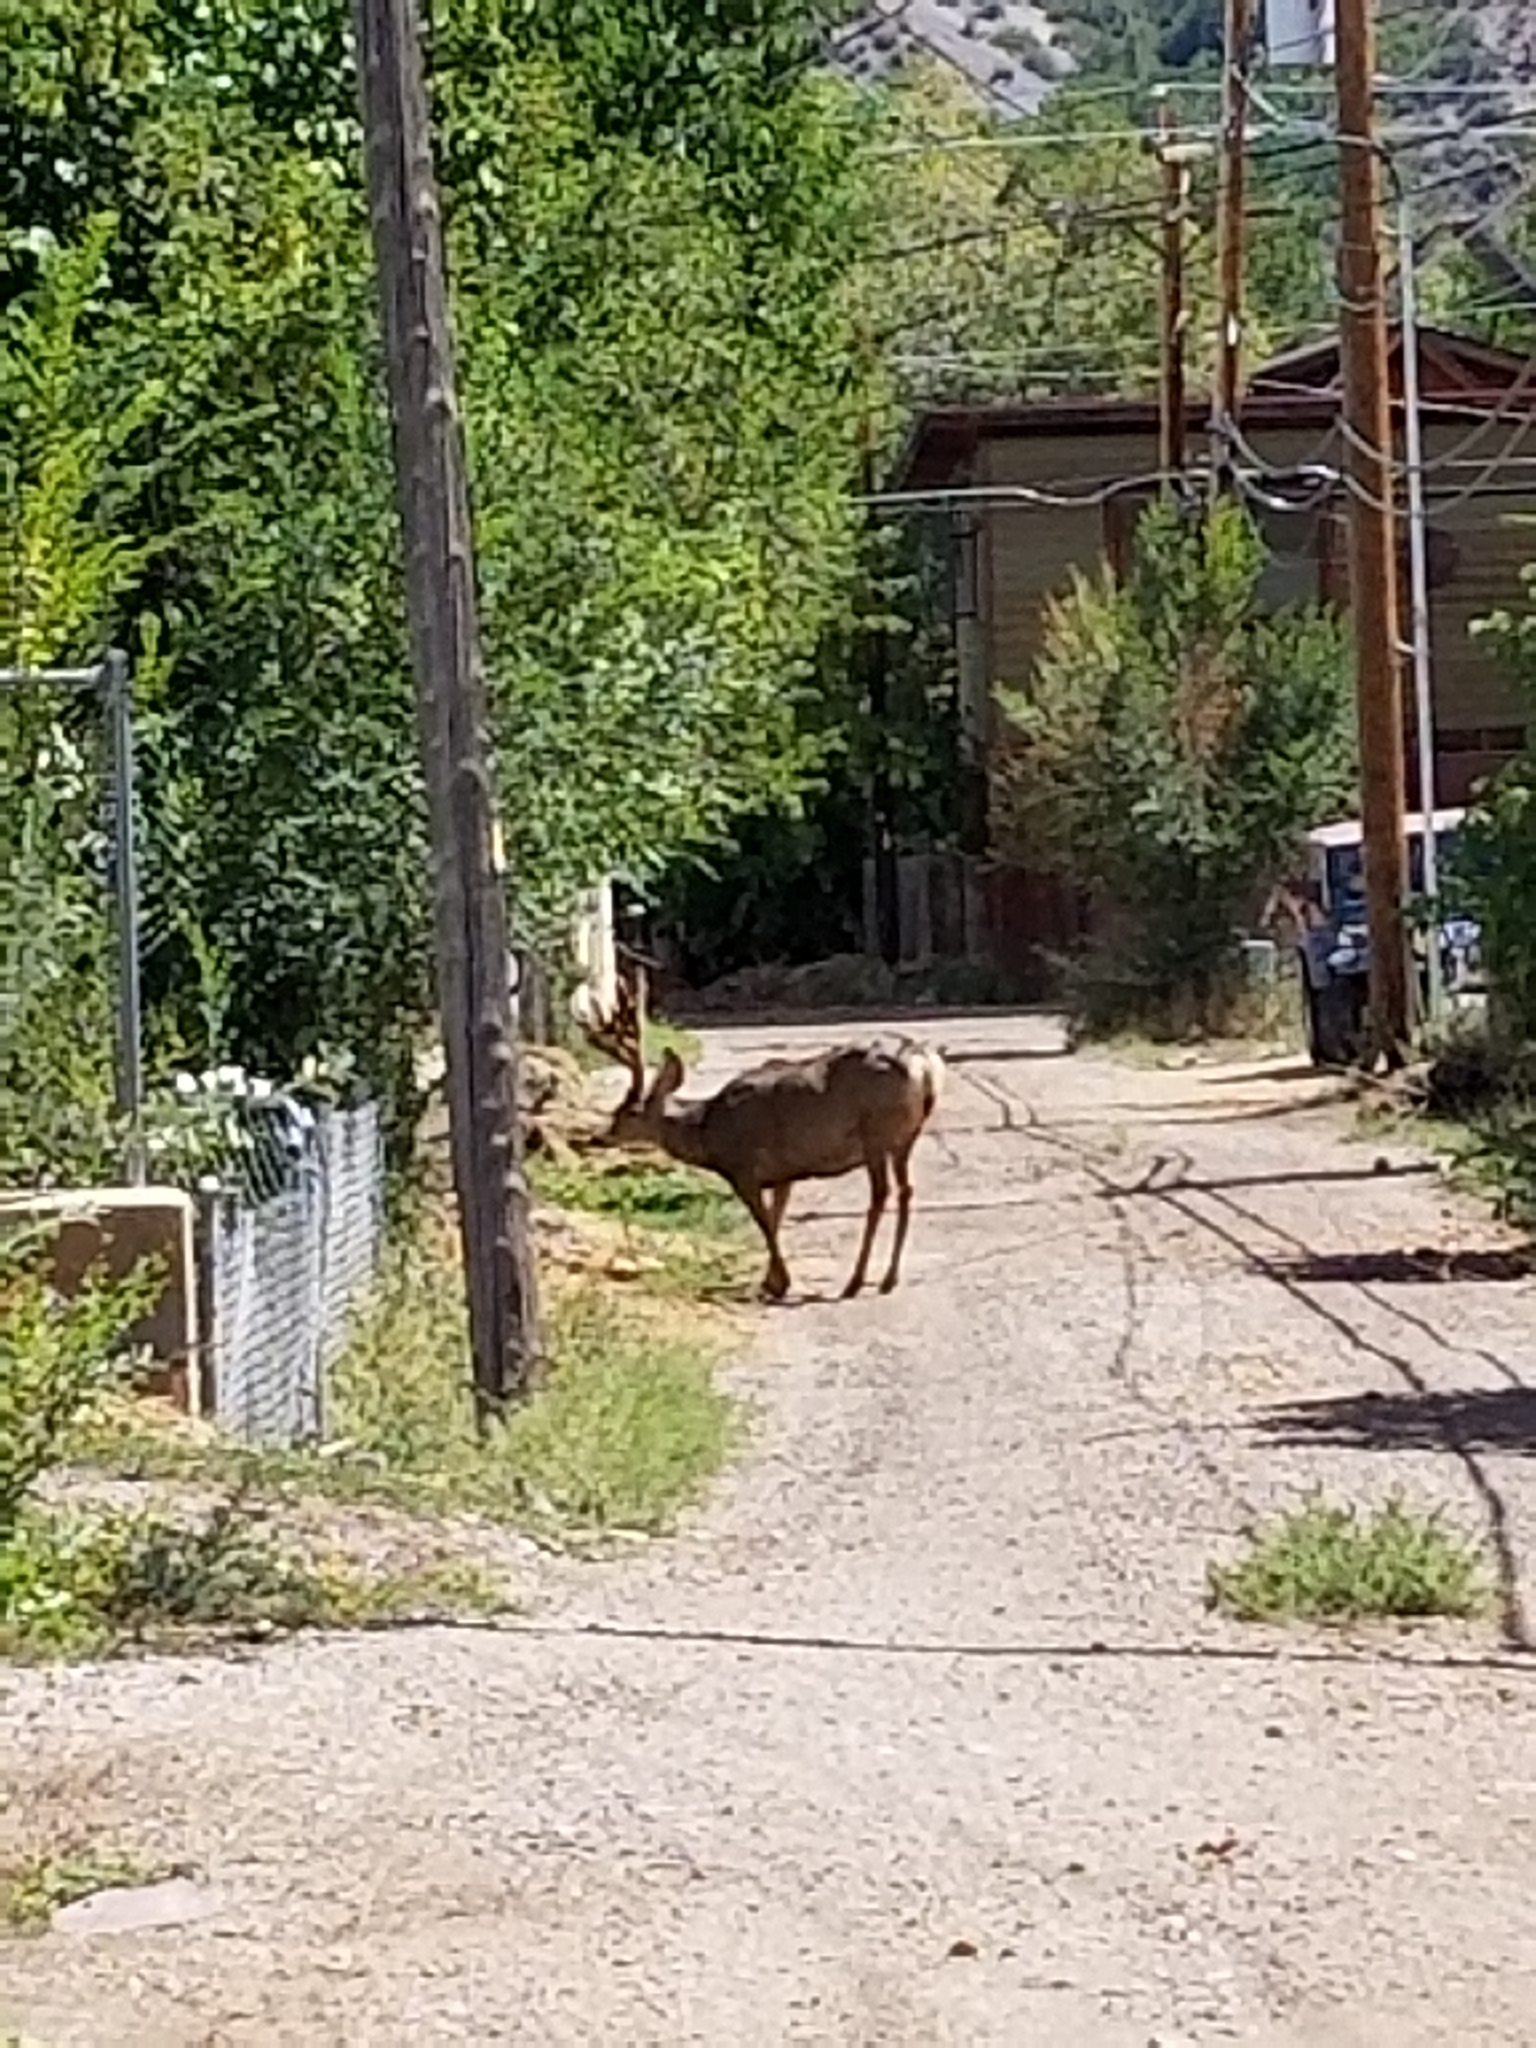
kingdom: Animalia
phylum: Chordata
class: Mammalia
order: Artiodactyla
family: Cervidae
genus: Odocoileus
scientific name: Odocoileus hemionus
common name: Mule deer
